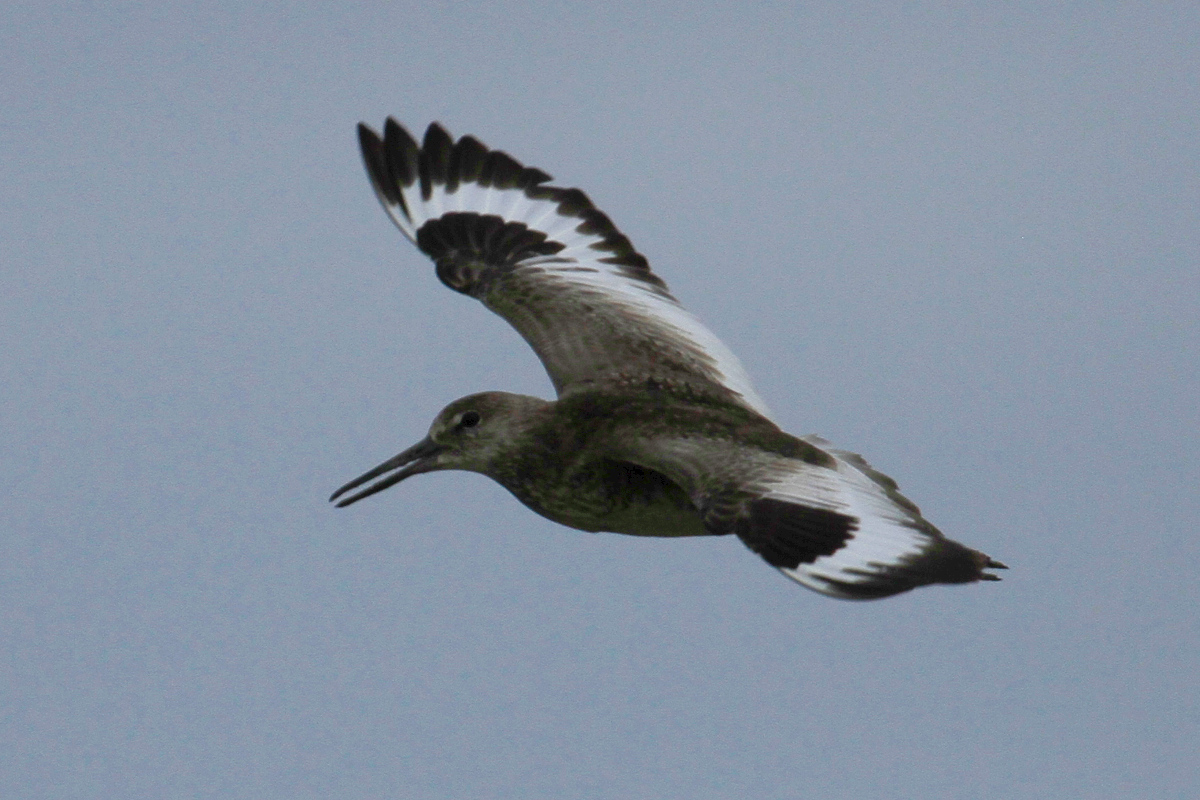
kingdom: Animalia
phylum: Chordata
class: Aves
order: Charadriiformes
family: Scolopacidae
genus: Tringa
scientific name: Tringa semipalmata
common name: Willet
